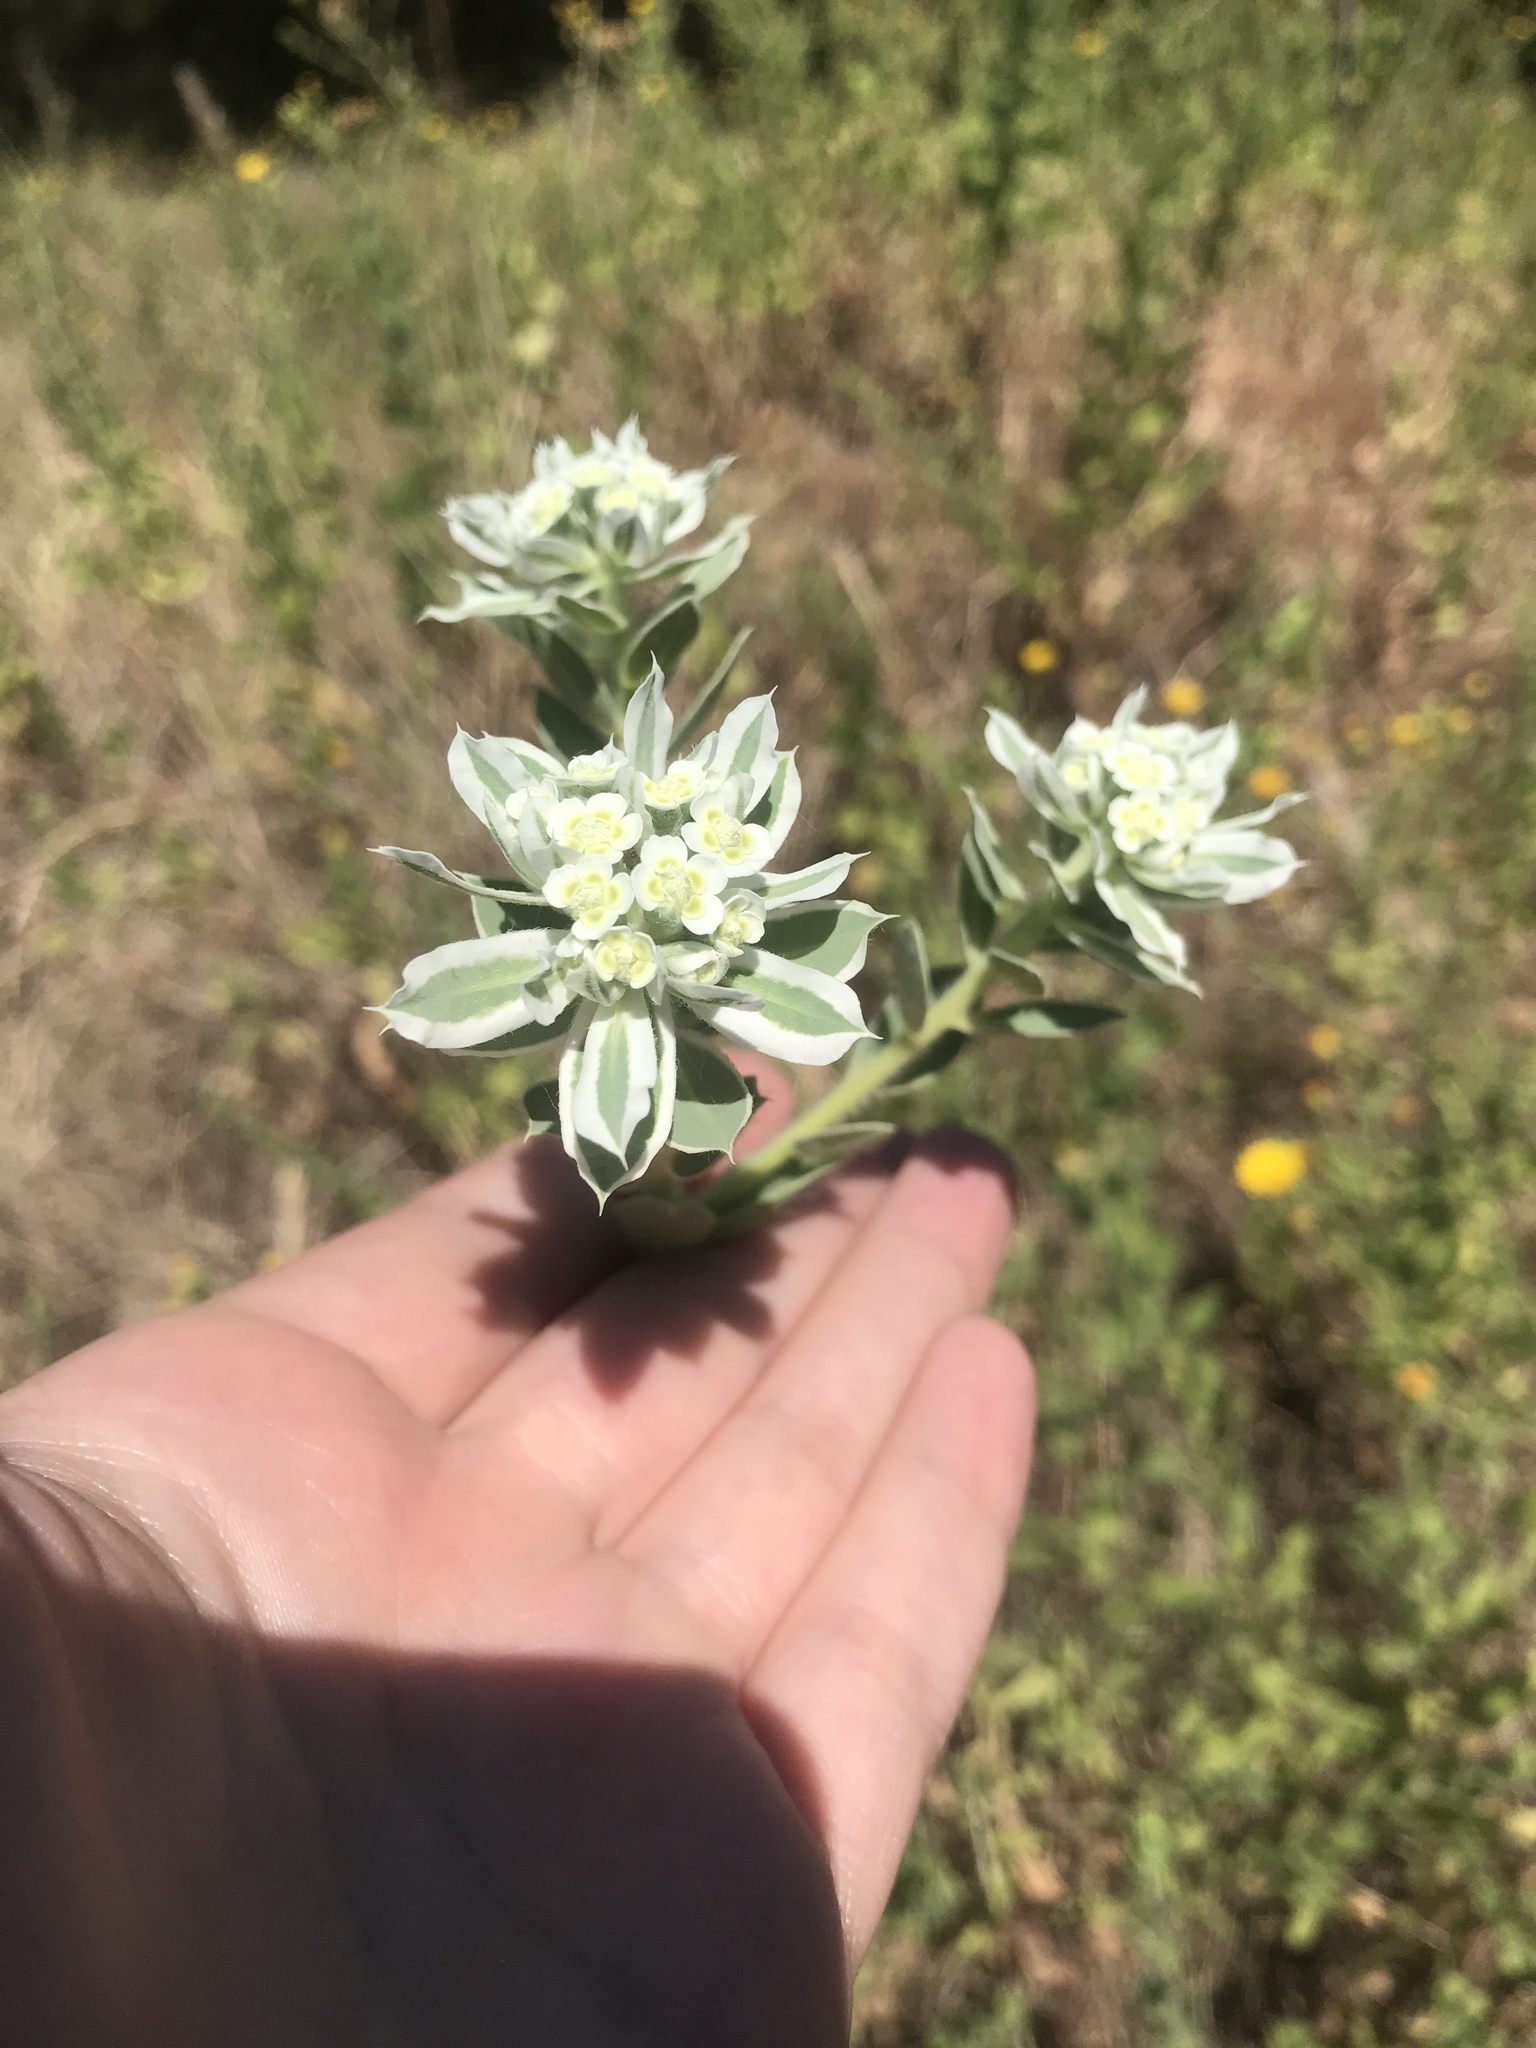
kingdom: Plantae
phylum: Tracheophyta
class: Magnoliopsida
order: Malpighiales
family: Euphorbiaceae
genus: Euphorbia
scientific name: Euphorbia marginata
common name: Ghostweed
